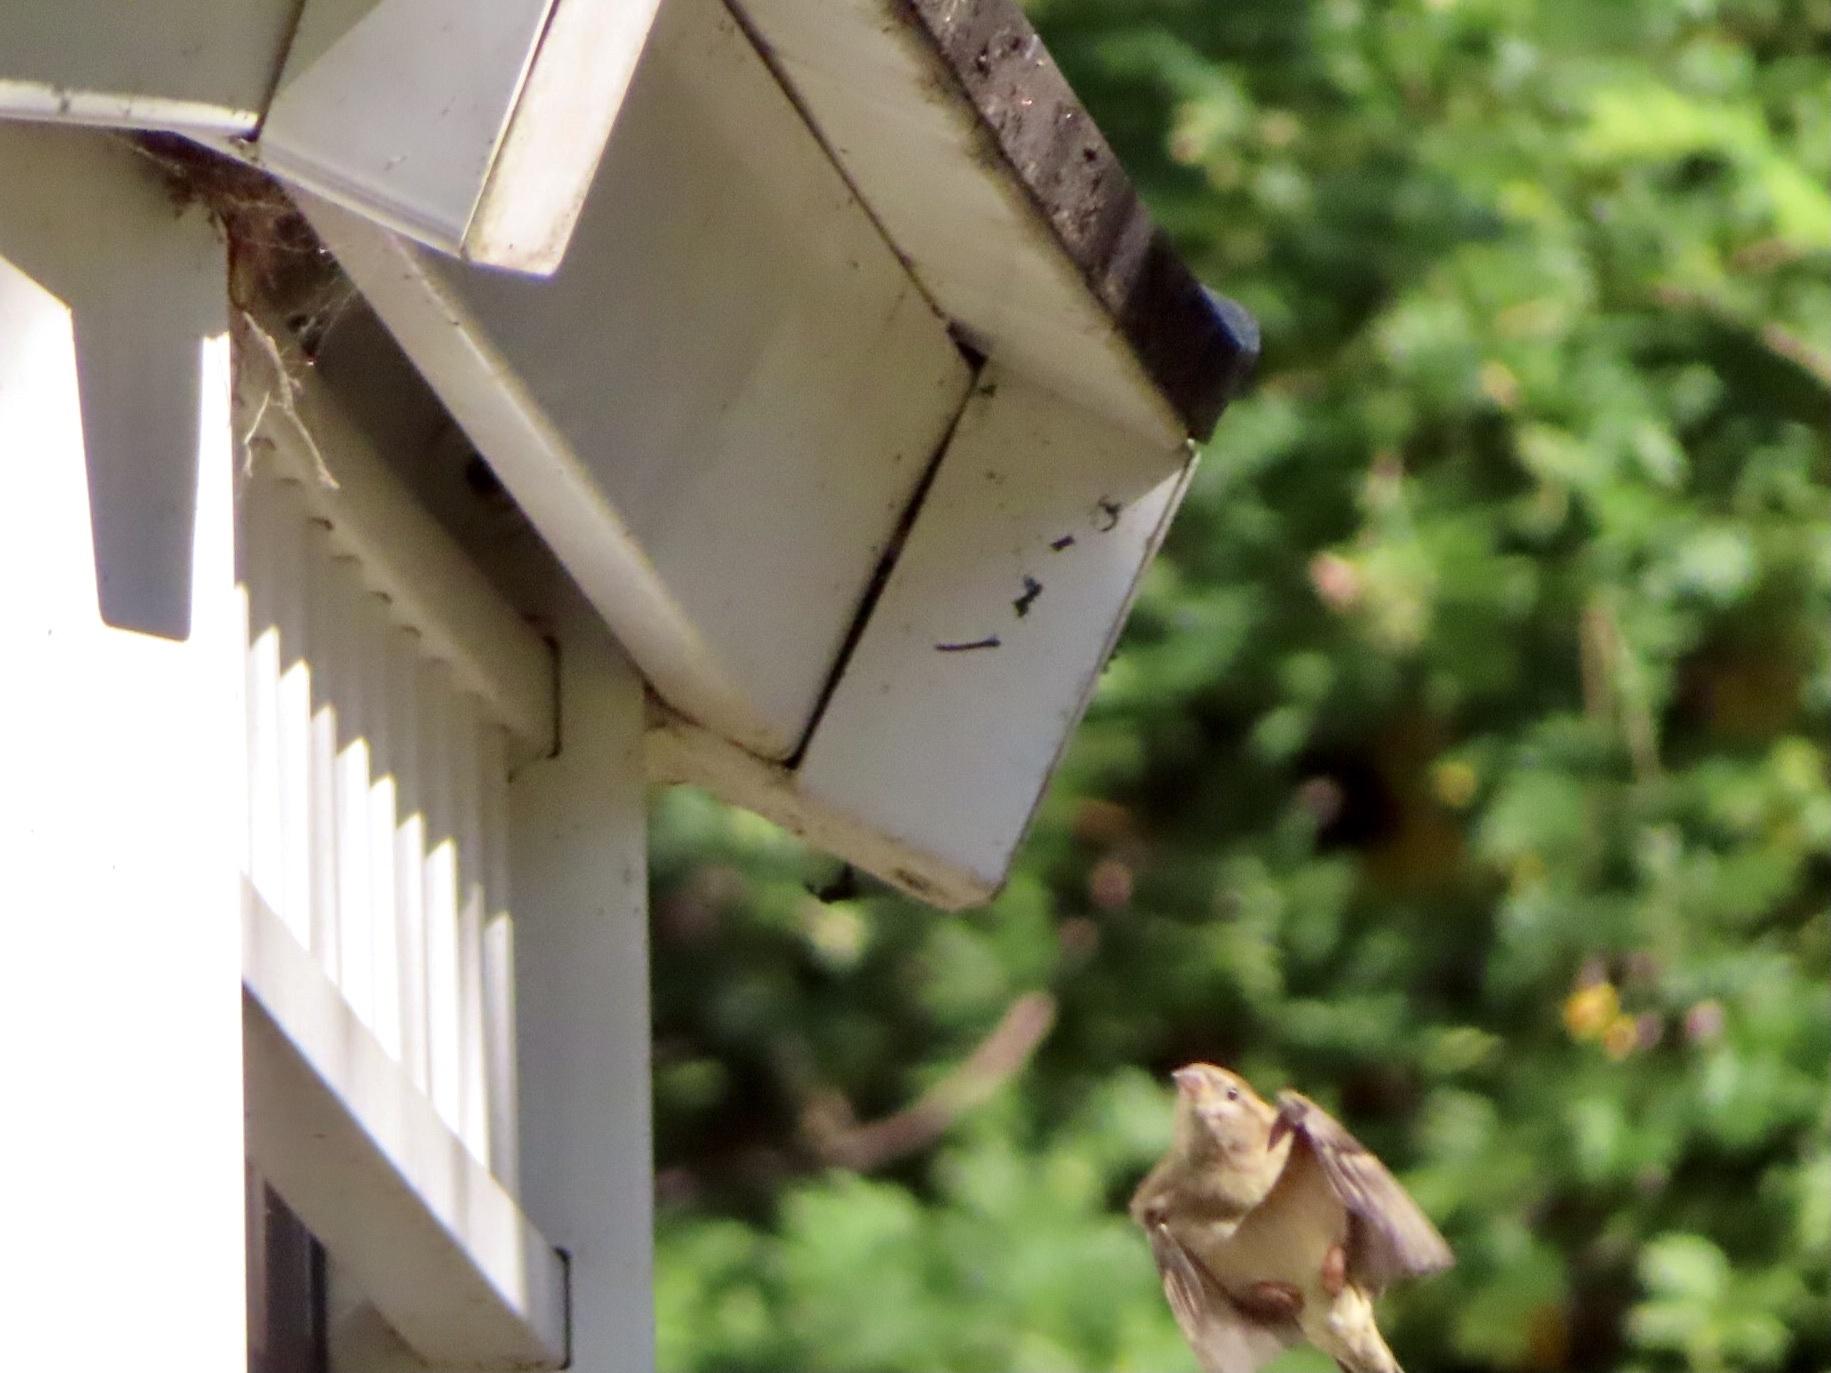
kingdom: Animalia
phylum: Chordata
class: Aves
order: Passeriformes
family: Passeridae
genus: Passer
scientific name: Passer domesticus
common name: House sparrow
